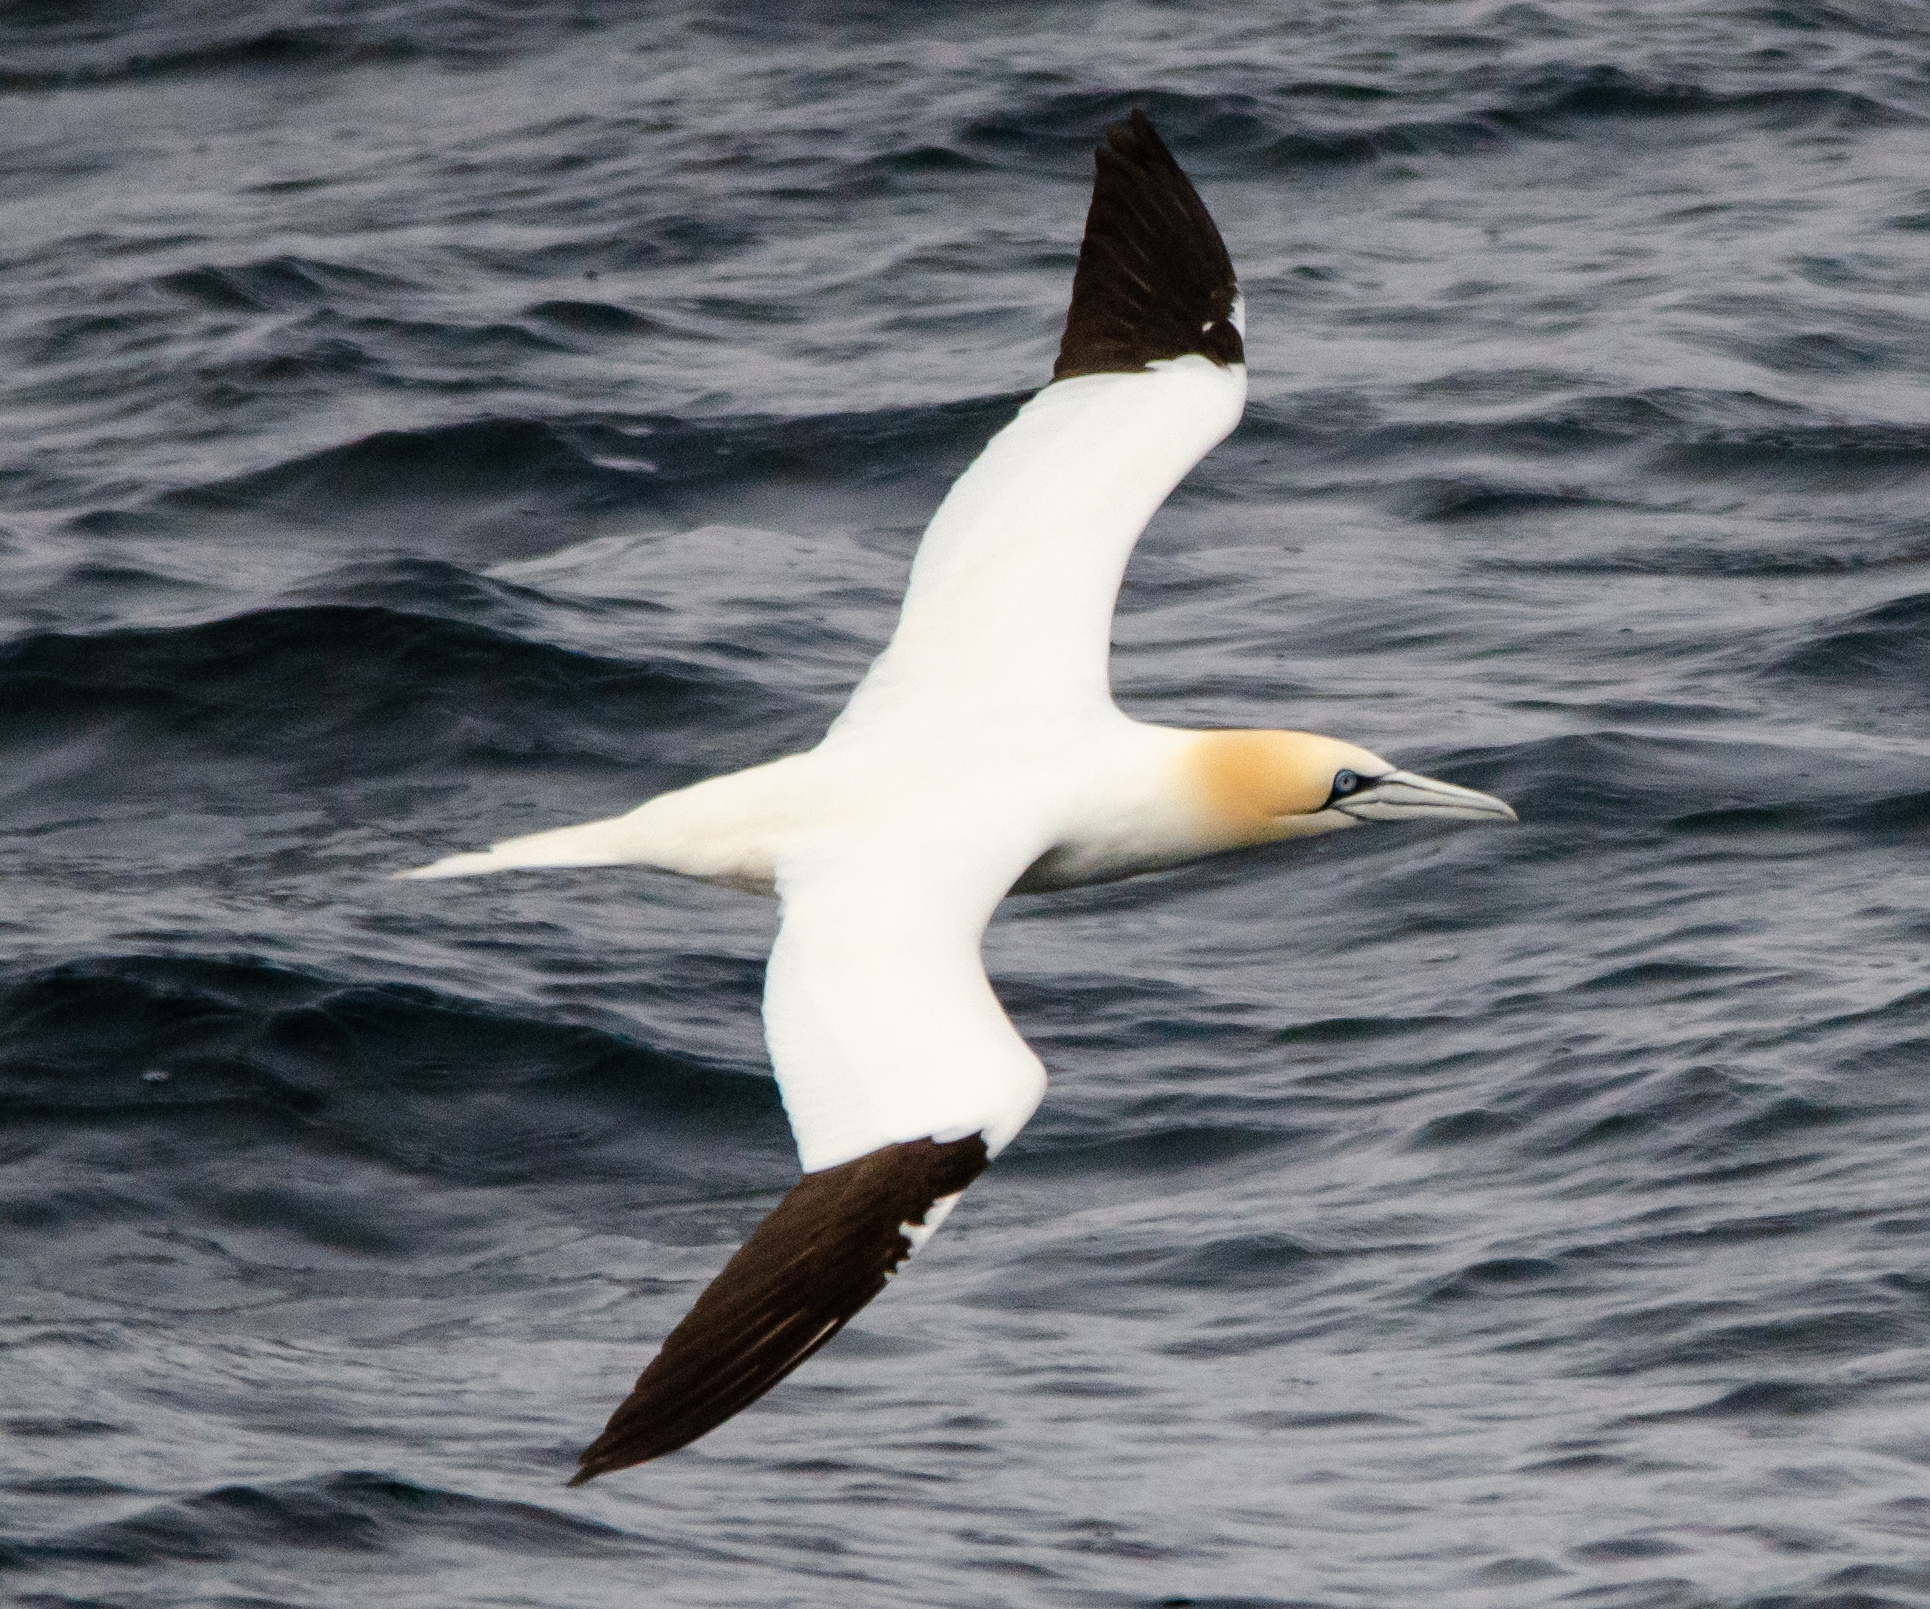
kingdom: Animalia
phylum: Chordata
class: Aves
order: Suliformes
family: Sulidae
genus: Morus
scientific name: Morus bassanus
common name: Northern gannet
